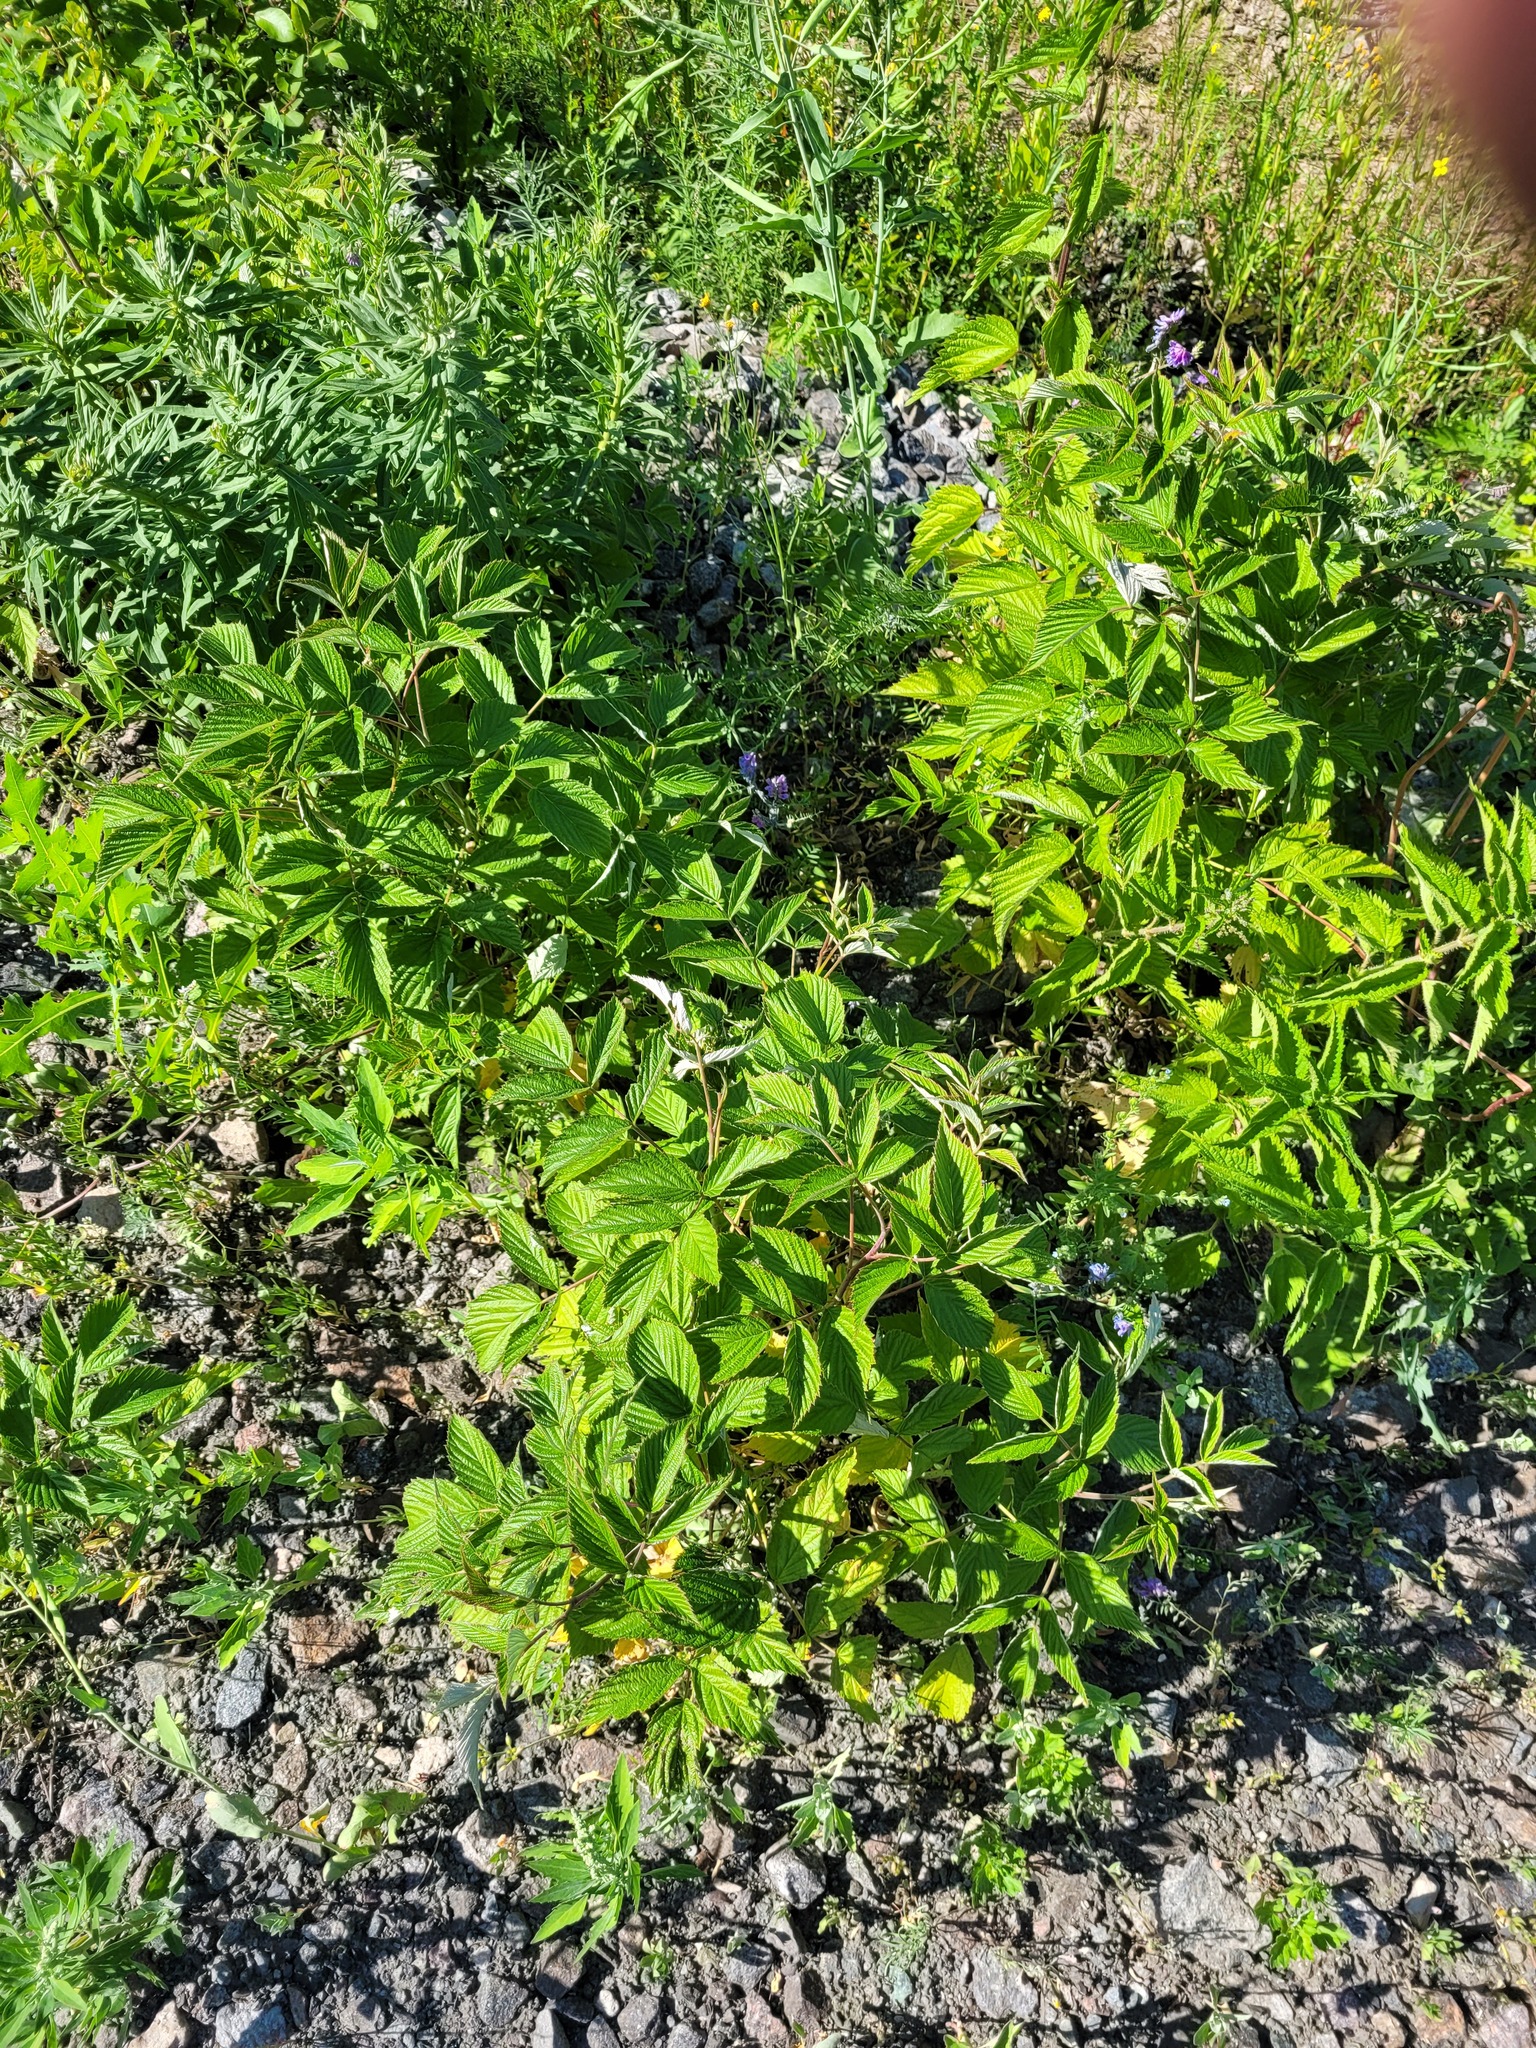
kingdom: Plantae
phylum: Tracheophyta
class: Magnoliopsida
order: Rosales
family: Rosaceae
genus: Rubus
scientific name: Rubus idaeus
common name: Raspberry
